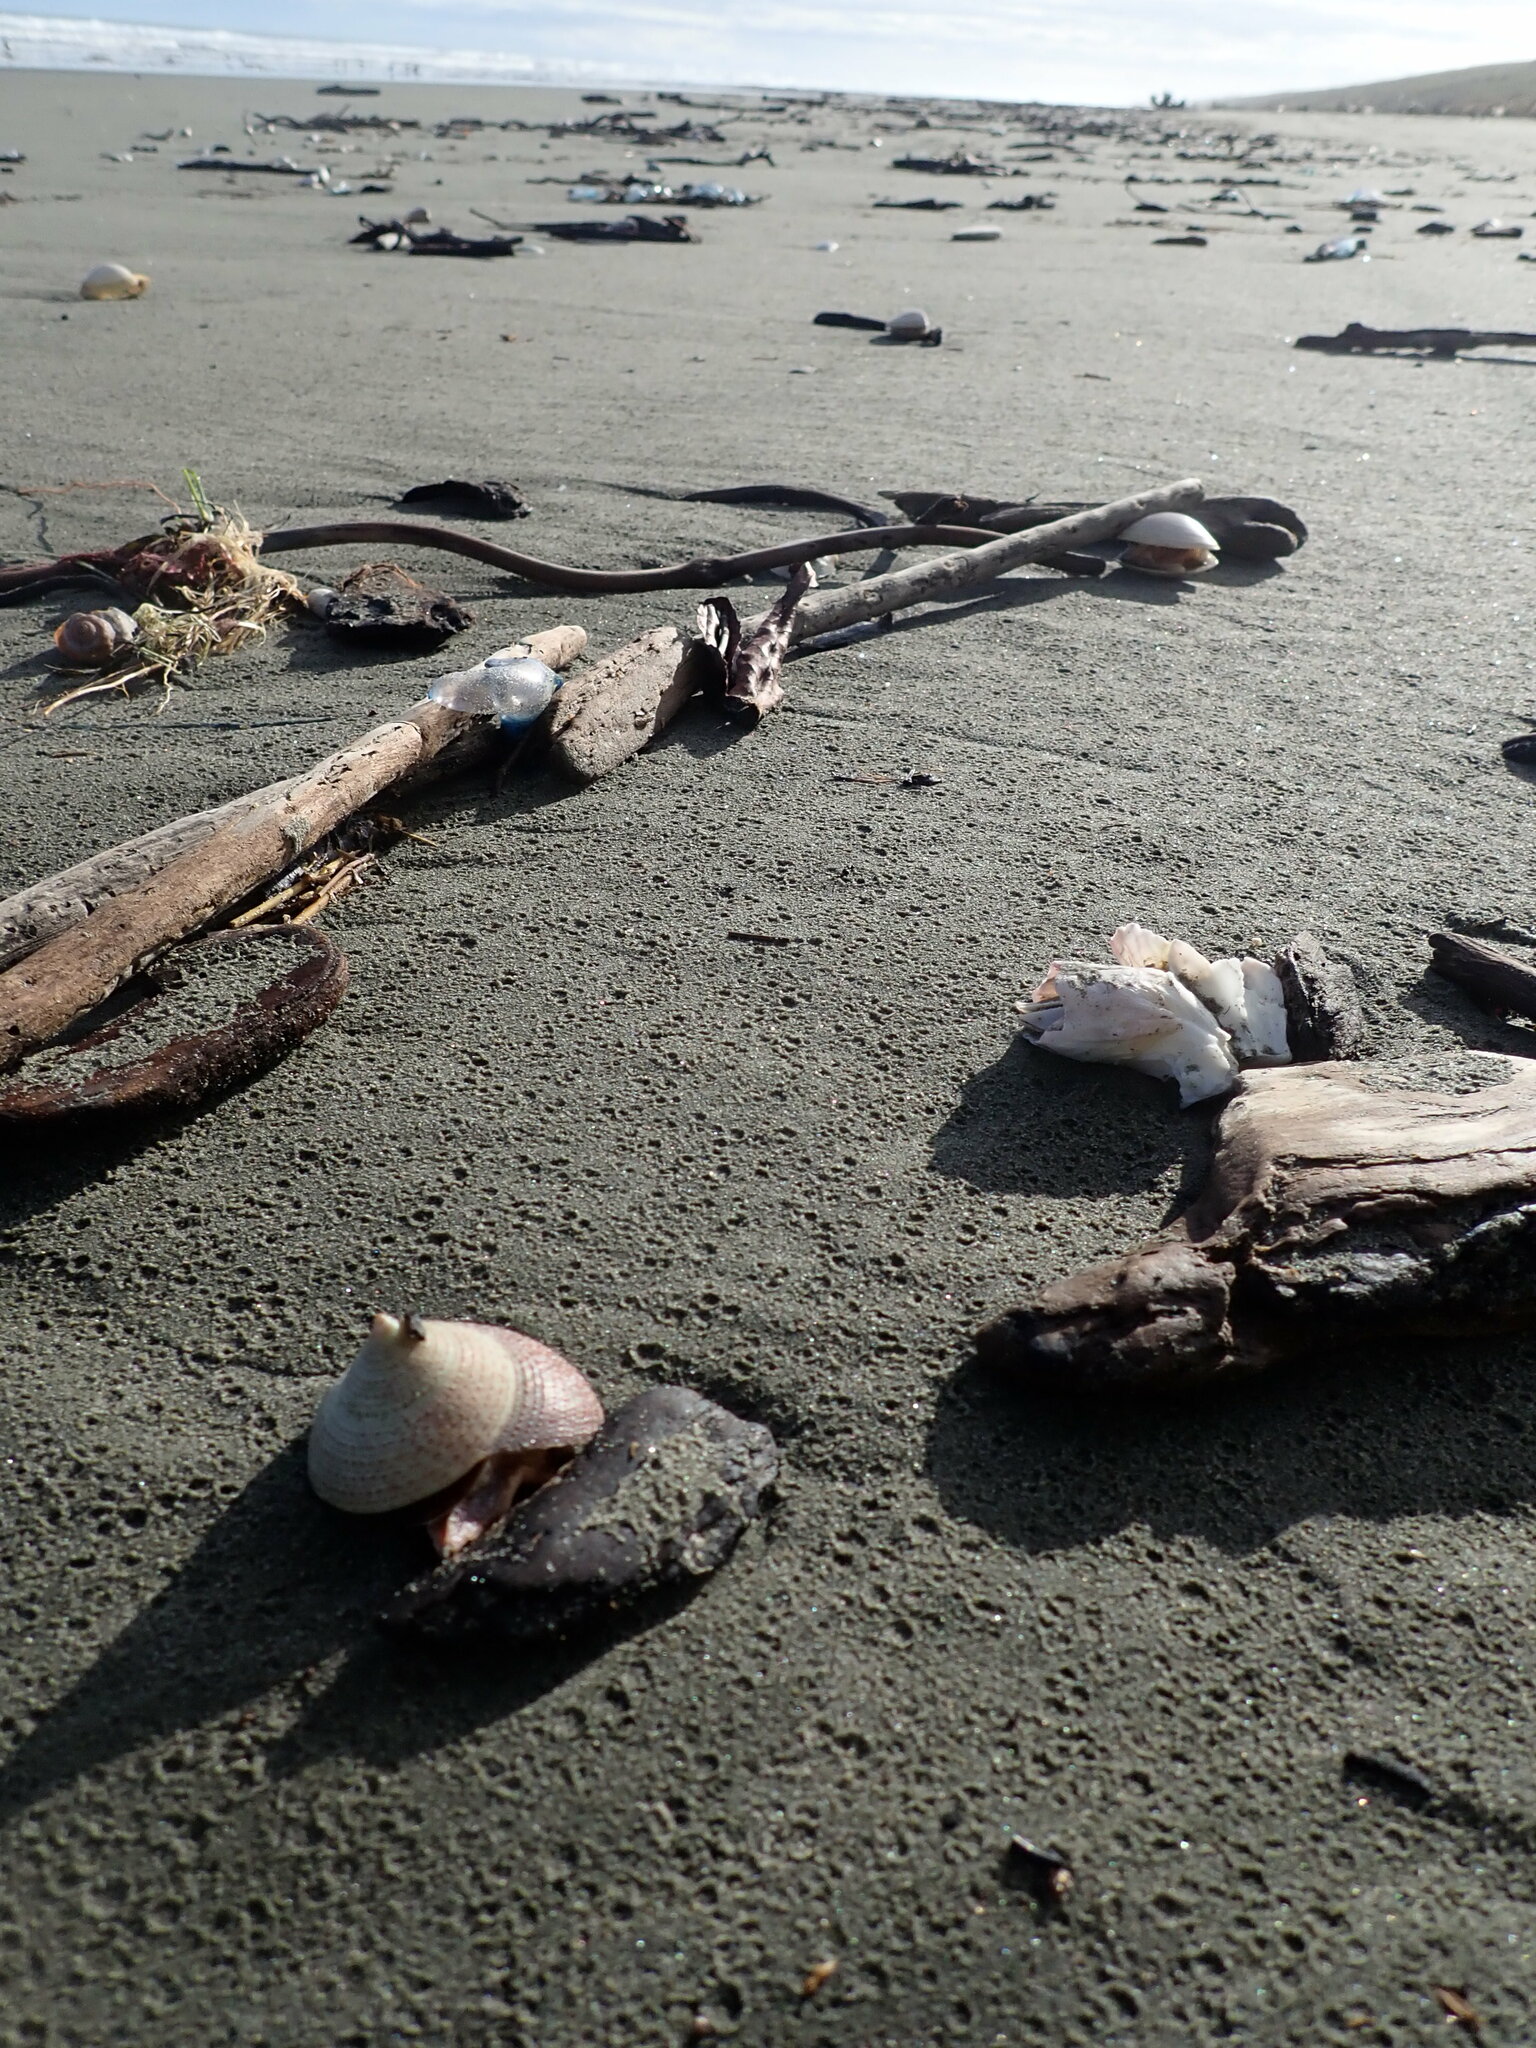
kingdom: Animalia
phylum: Mollusca
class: Gastropoda
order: Trochida
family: Calliostomatidae
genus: Maurea
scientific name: Maurea selecta
